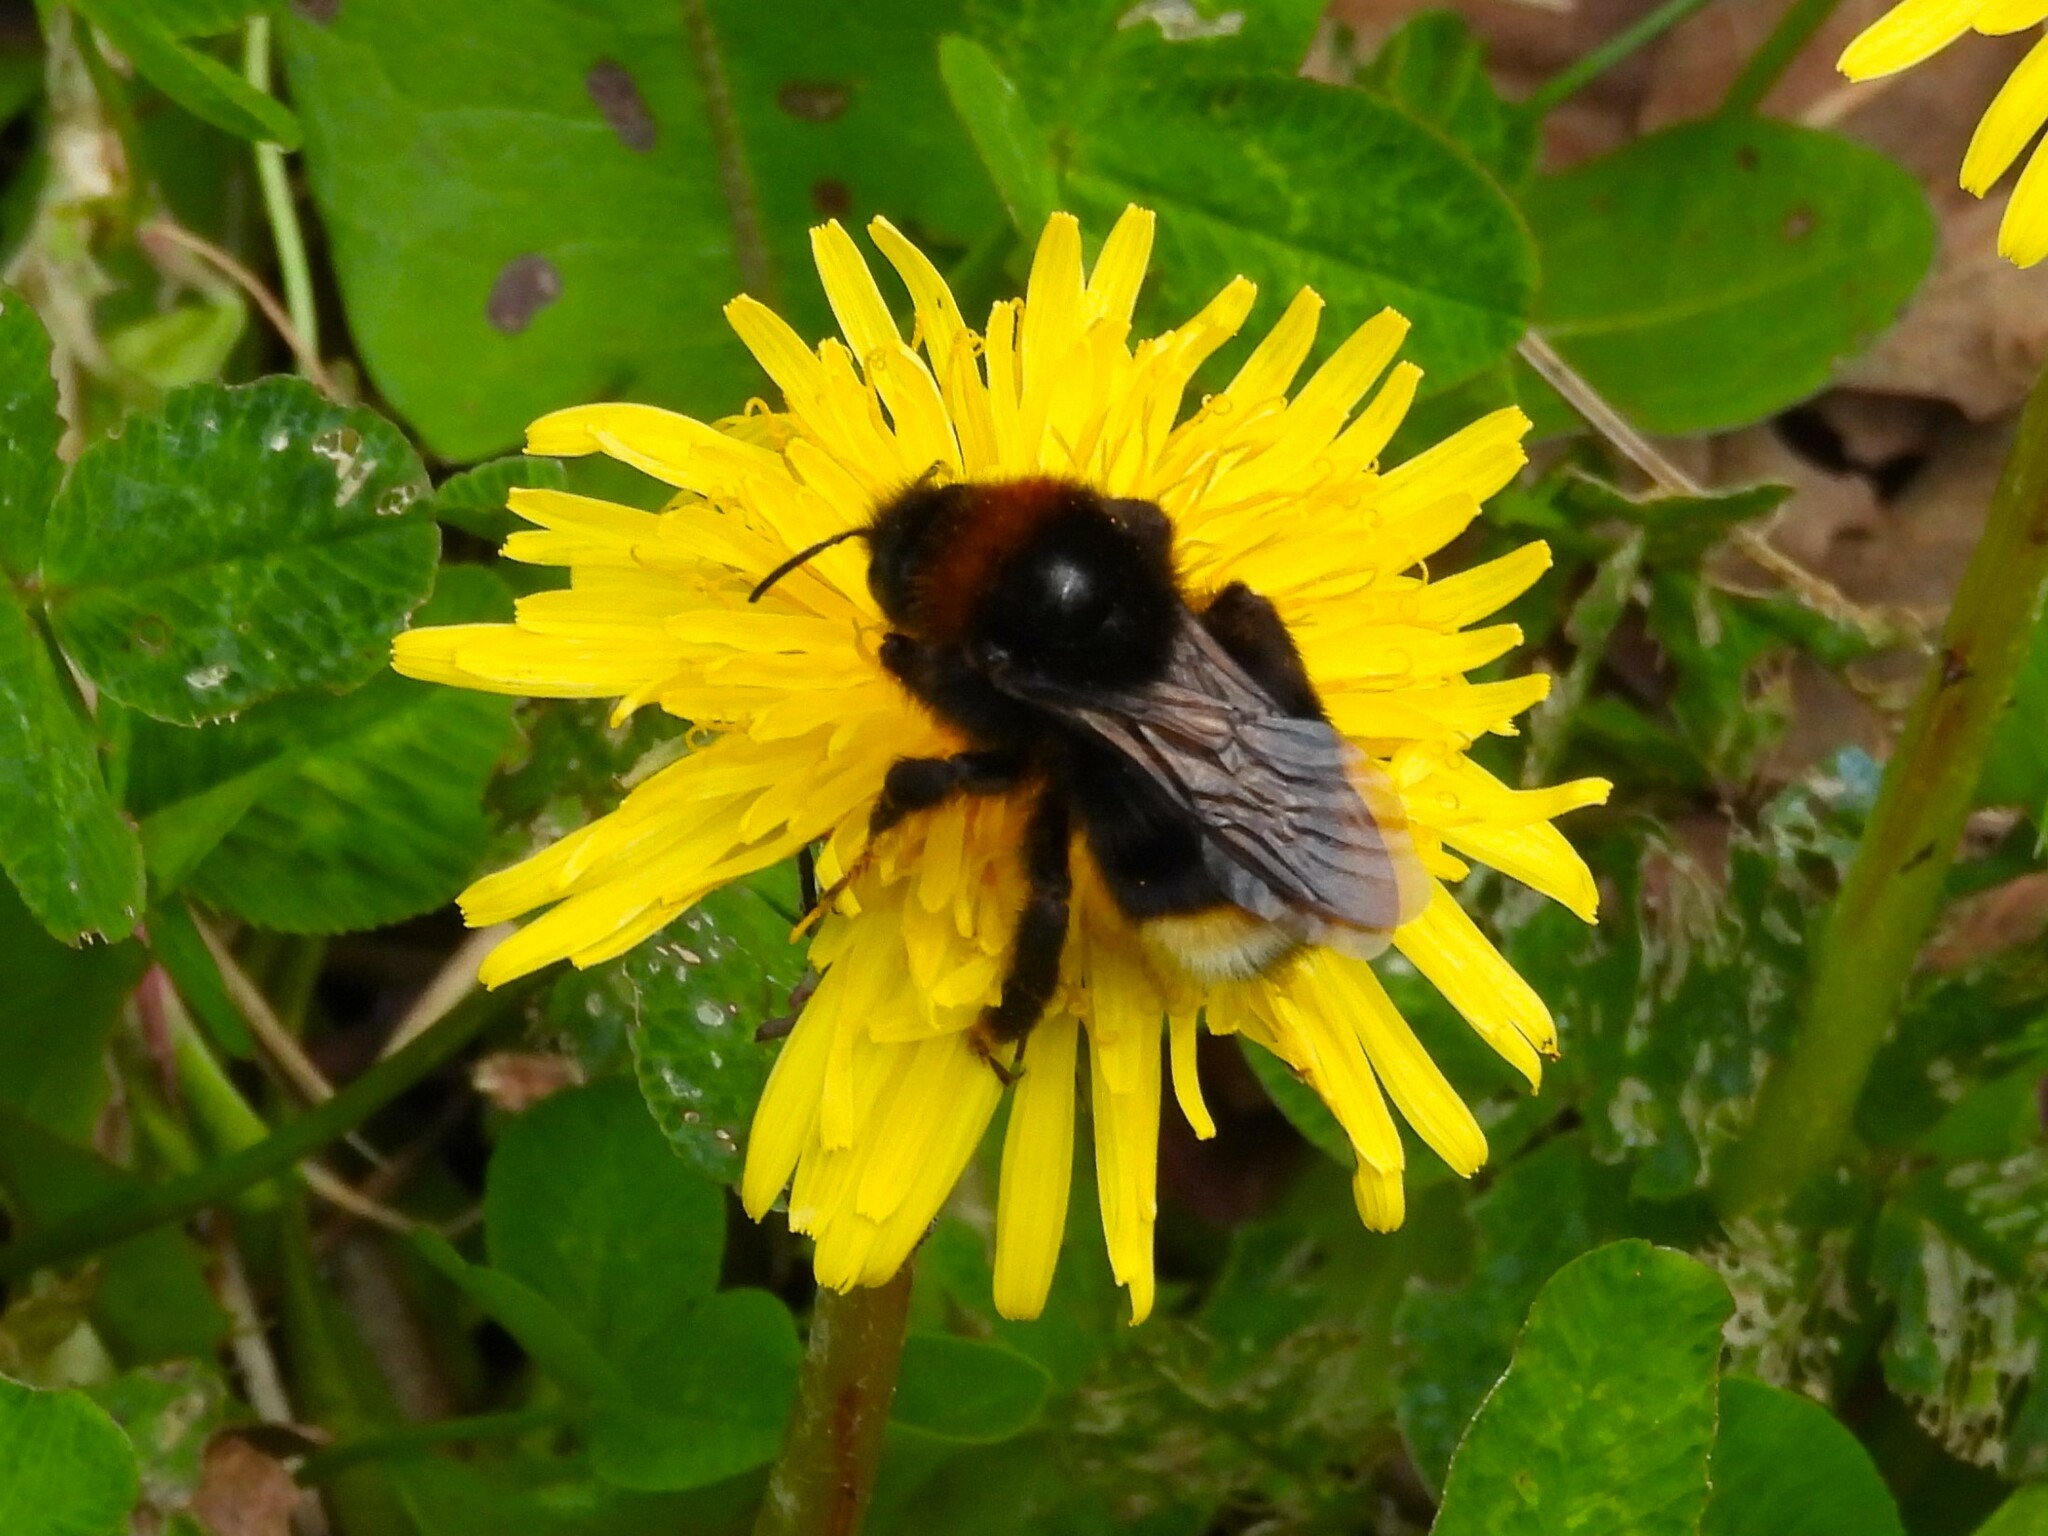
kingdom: Animalia
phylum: Arthropoda
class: Insecta
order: Hymenoptera
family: Apidae
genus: Bombus
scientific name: Bombus vestalis
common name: Vestal cuckoo bee
